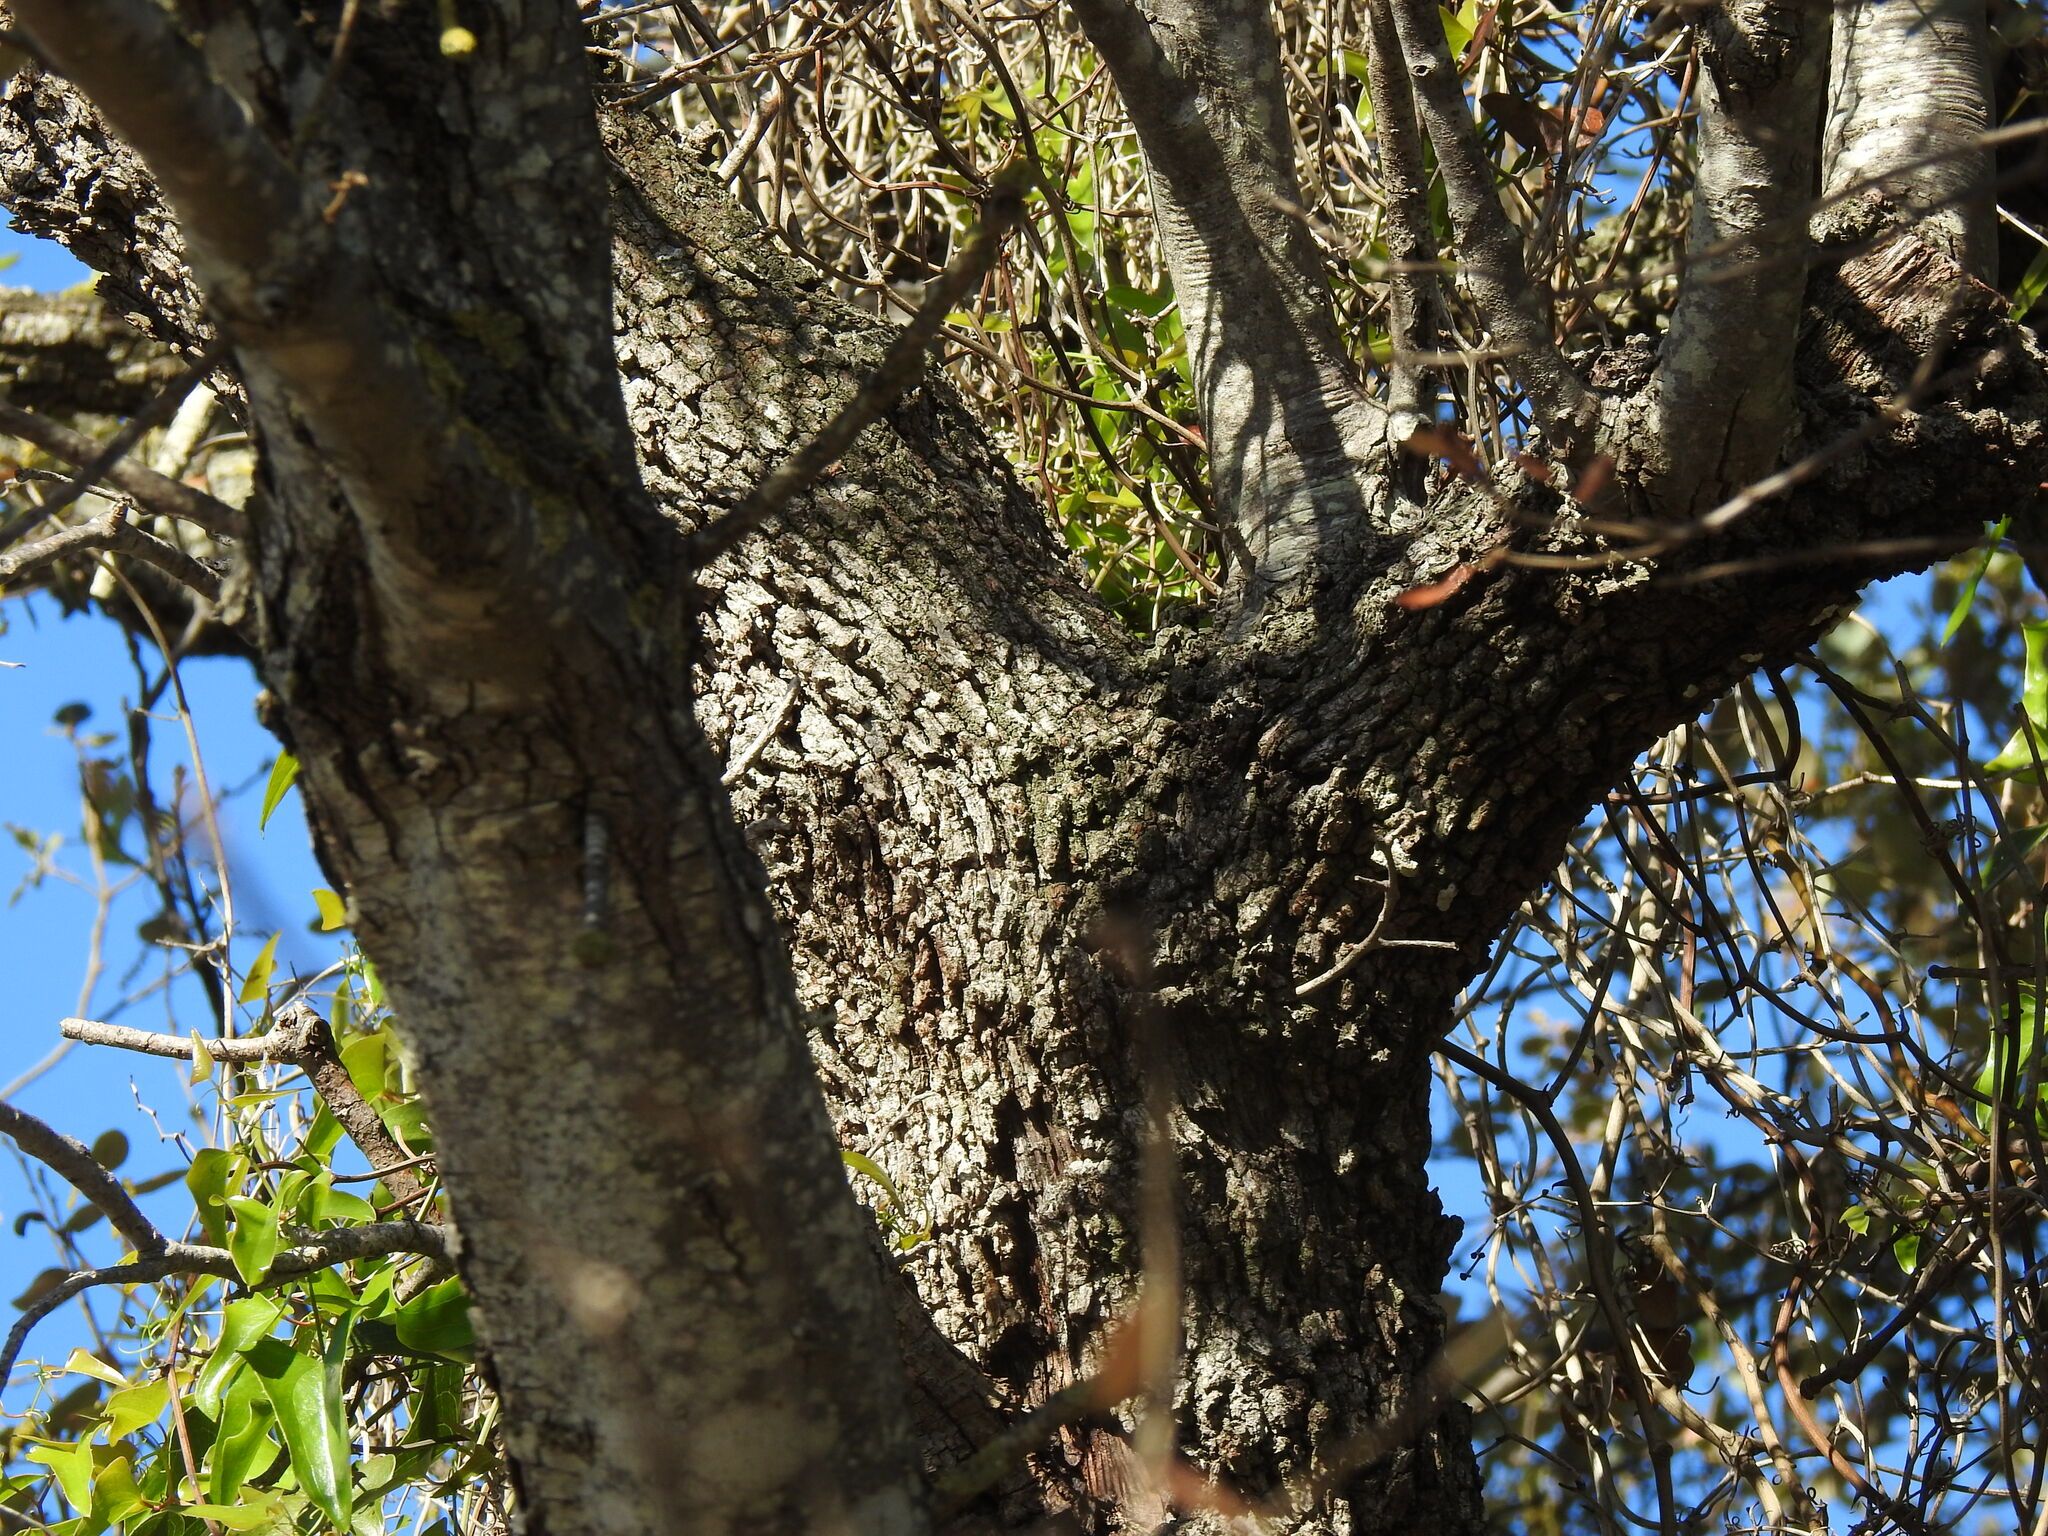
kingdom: Plantae
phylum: Tracheophyta
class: Magnoliopsida
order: Fagales
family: Fagaceae
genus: Quercus
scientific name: Quercus rotundifolia
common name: Holm oak
